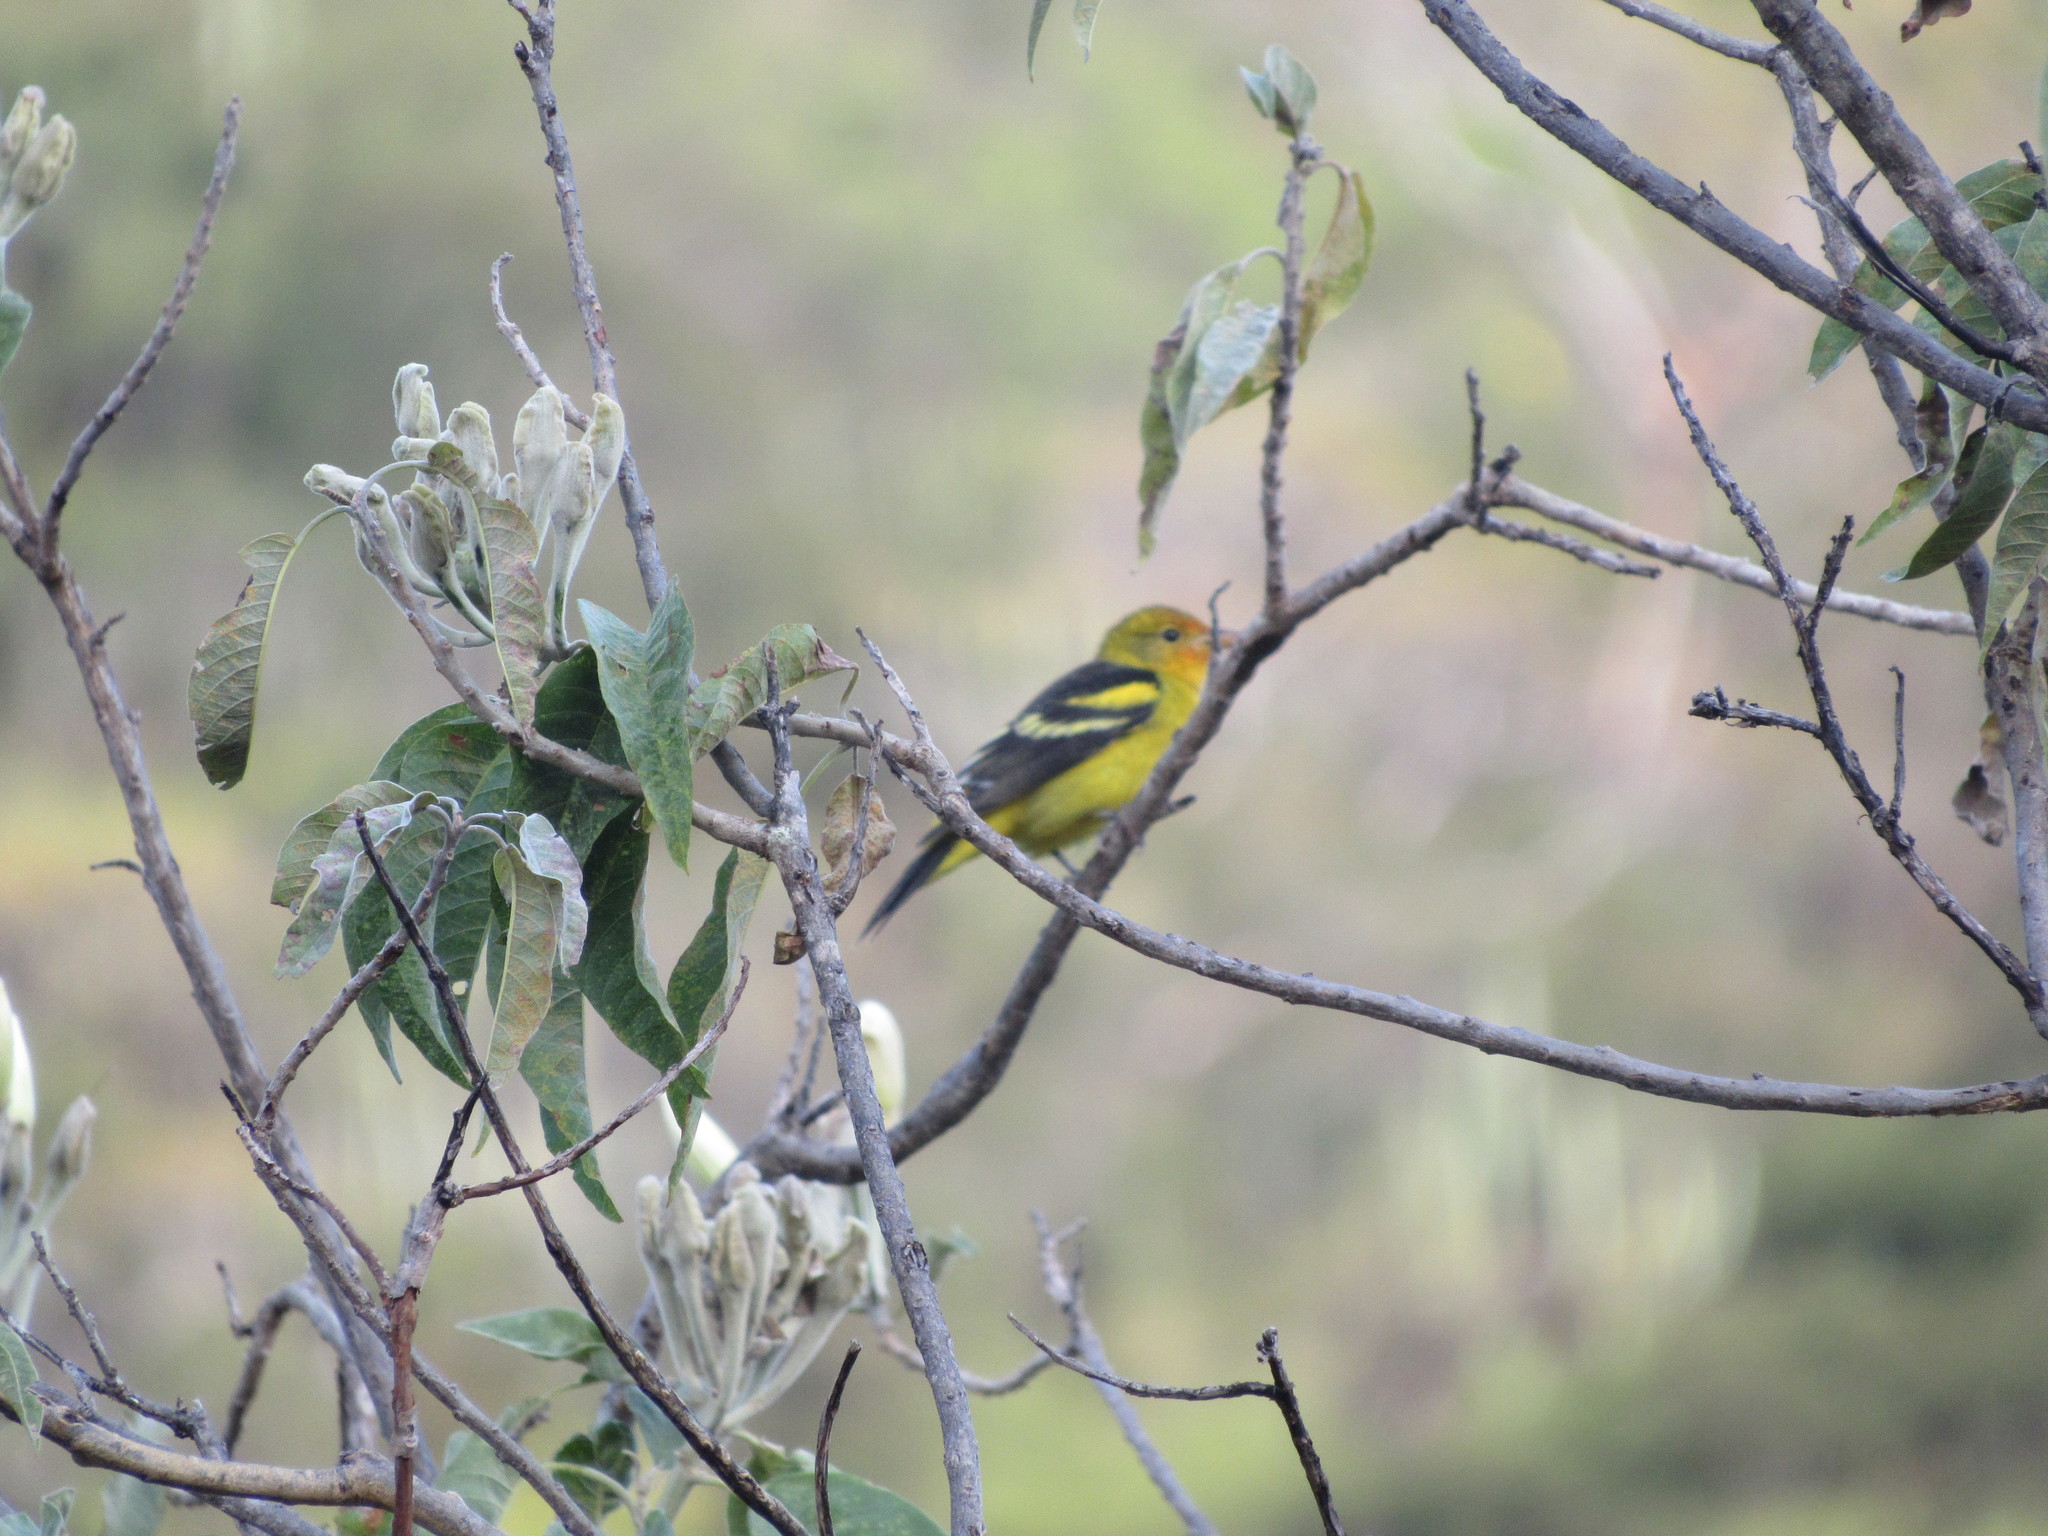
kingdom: Animalia
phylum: Chordata
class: Aves
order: Passeriformes
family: Cardinalidae
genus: Piranga
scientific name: Piranga ludoviciana
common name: Western tanager
